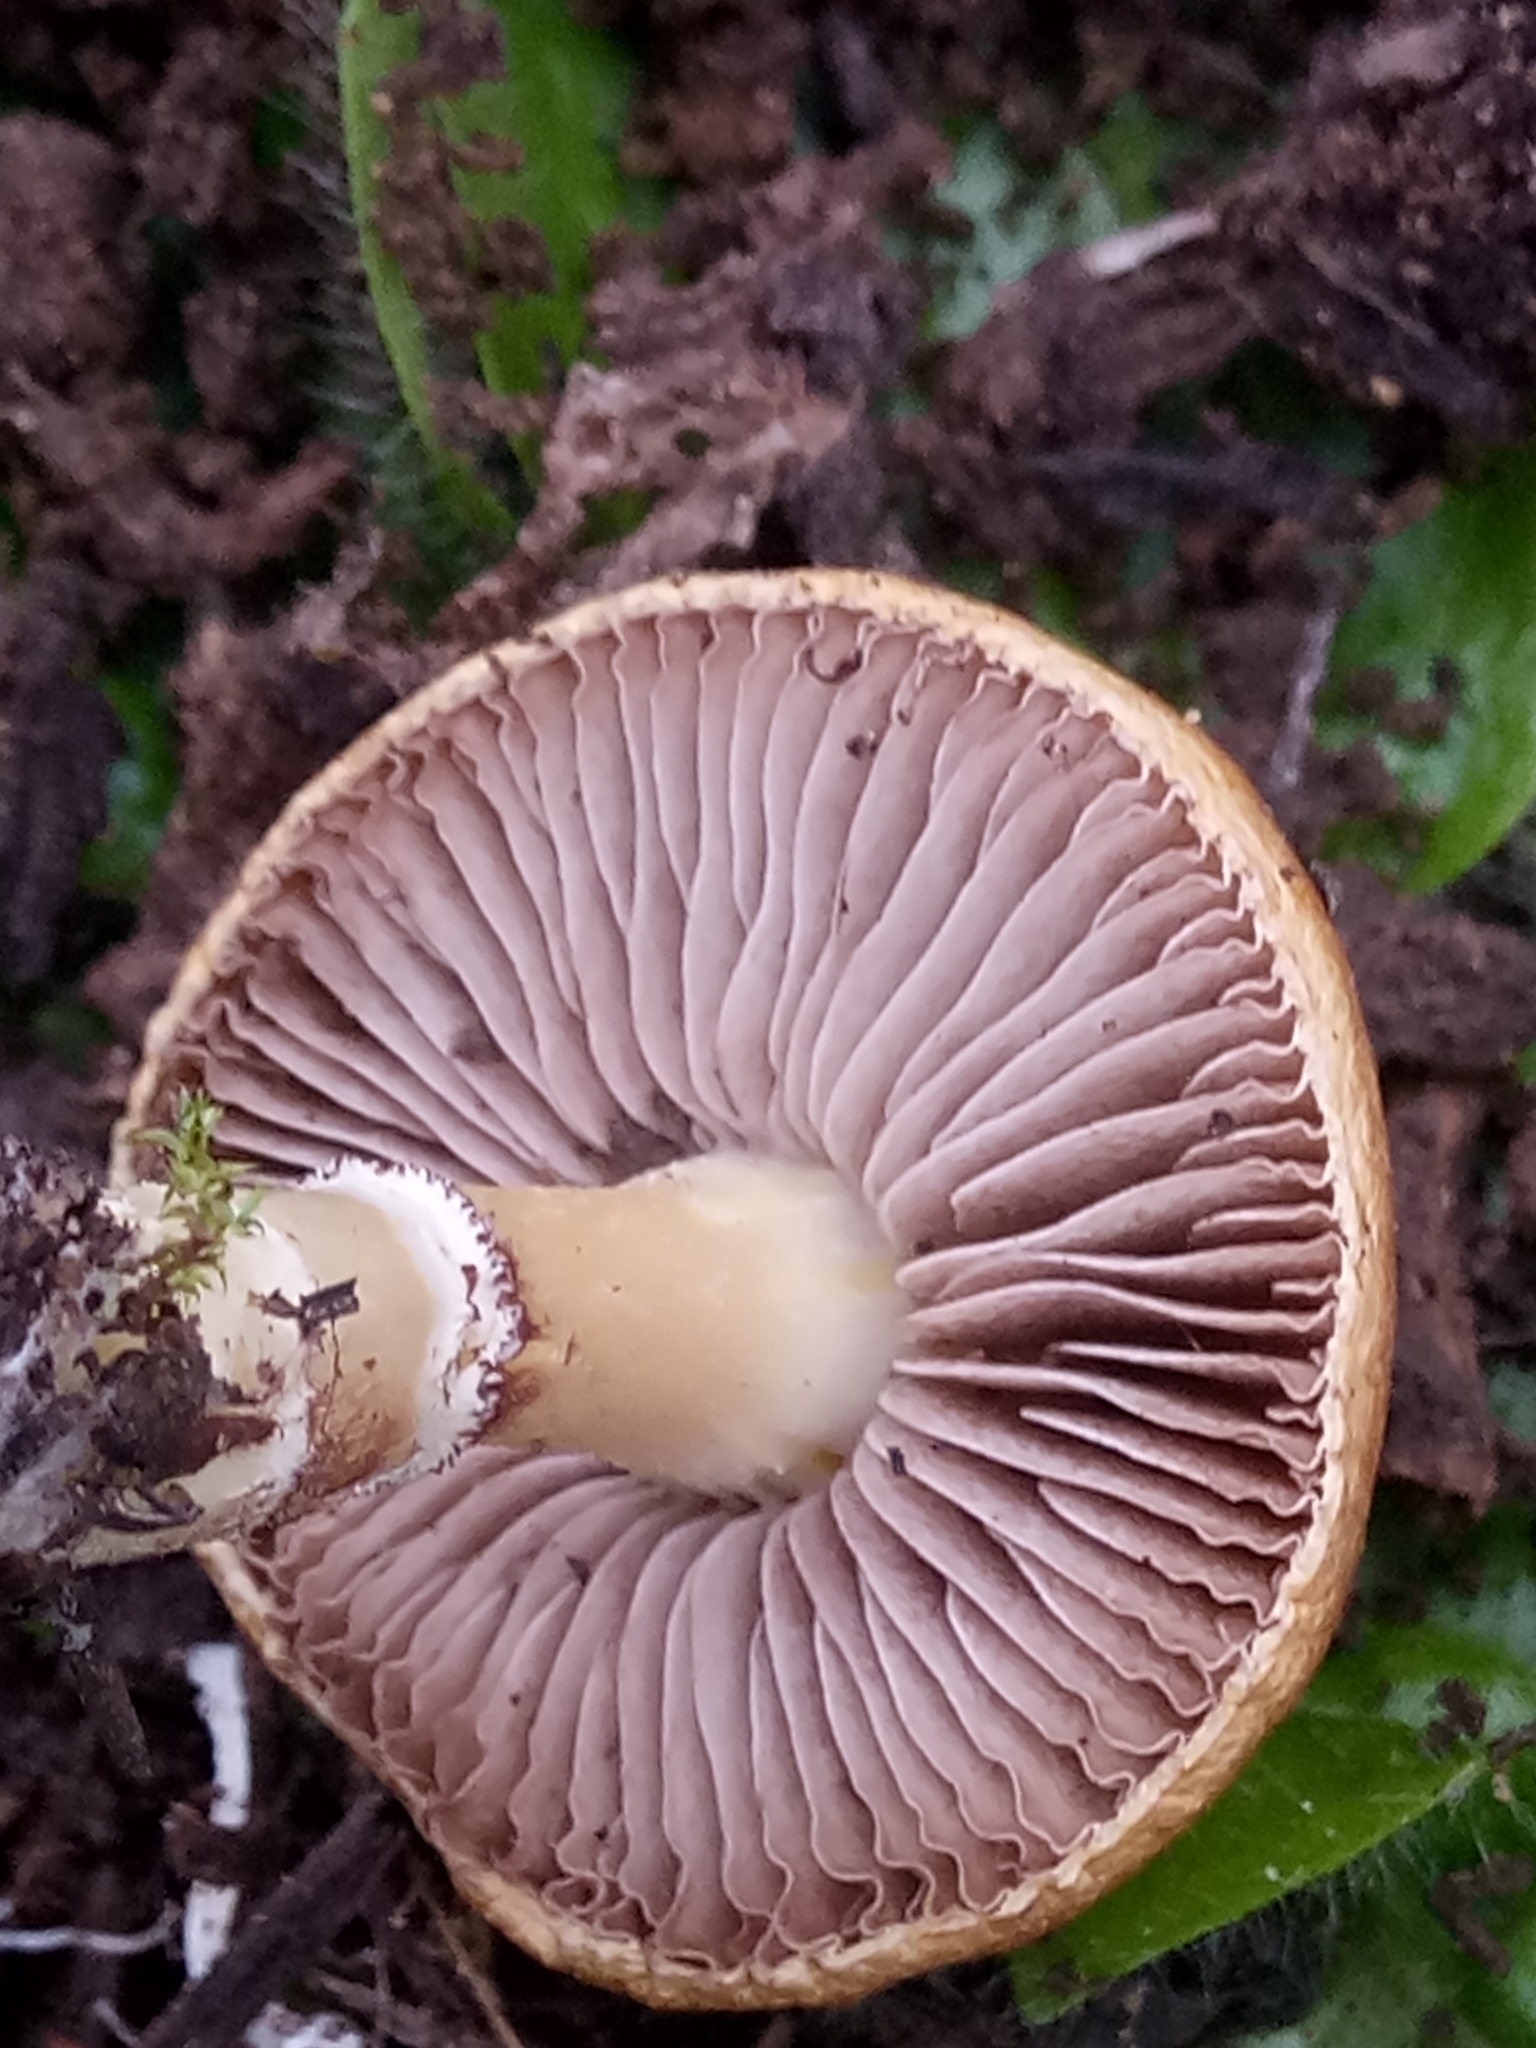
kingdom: Fungi
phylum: Basidiomycota
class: Agaricomycetes
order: Agaricales
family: Strophariaceae
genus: Protostropharia
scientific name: Protostropharia semiglobata
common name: Dung roundhead
